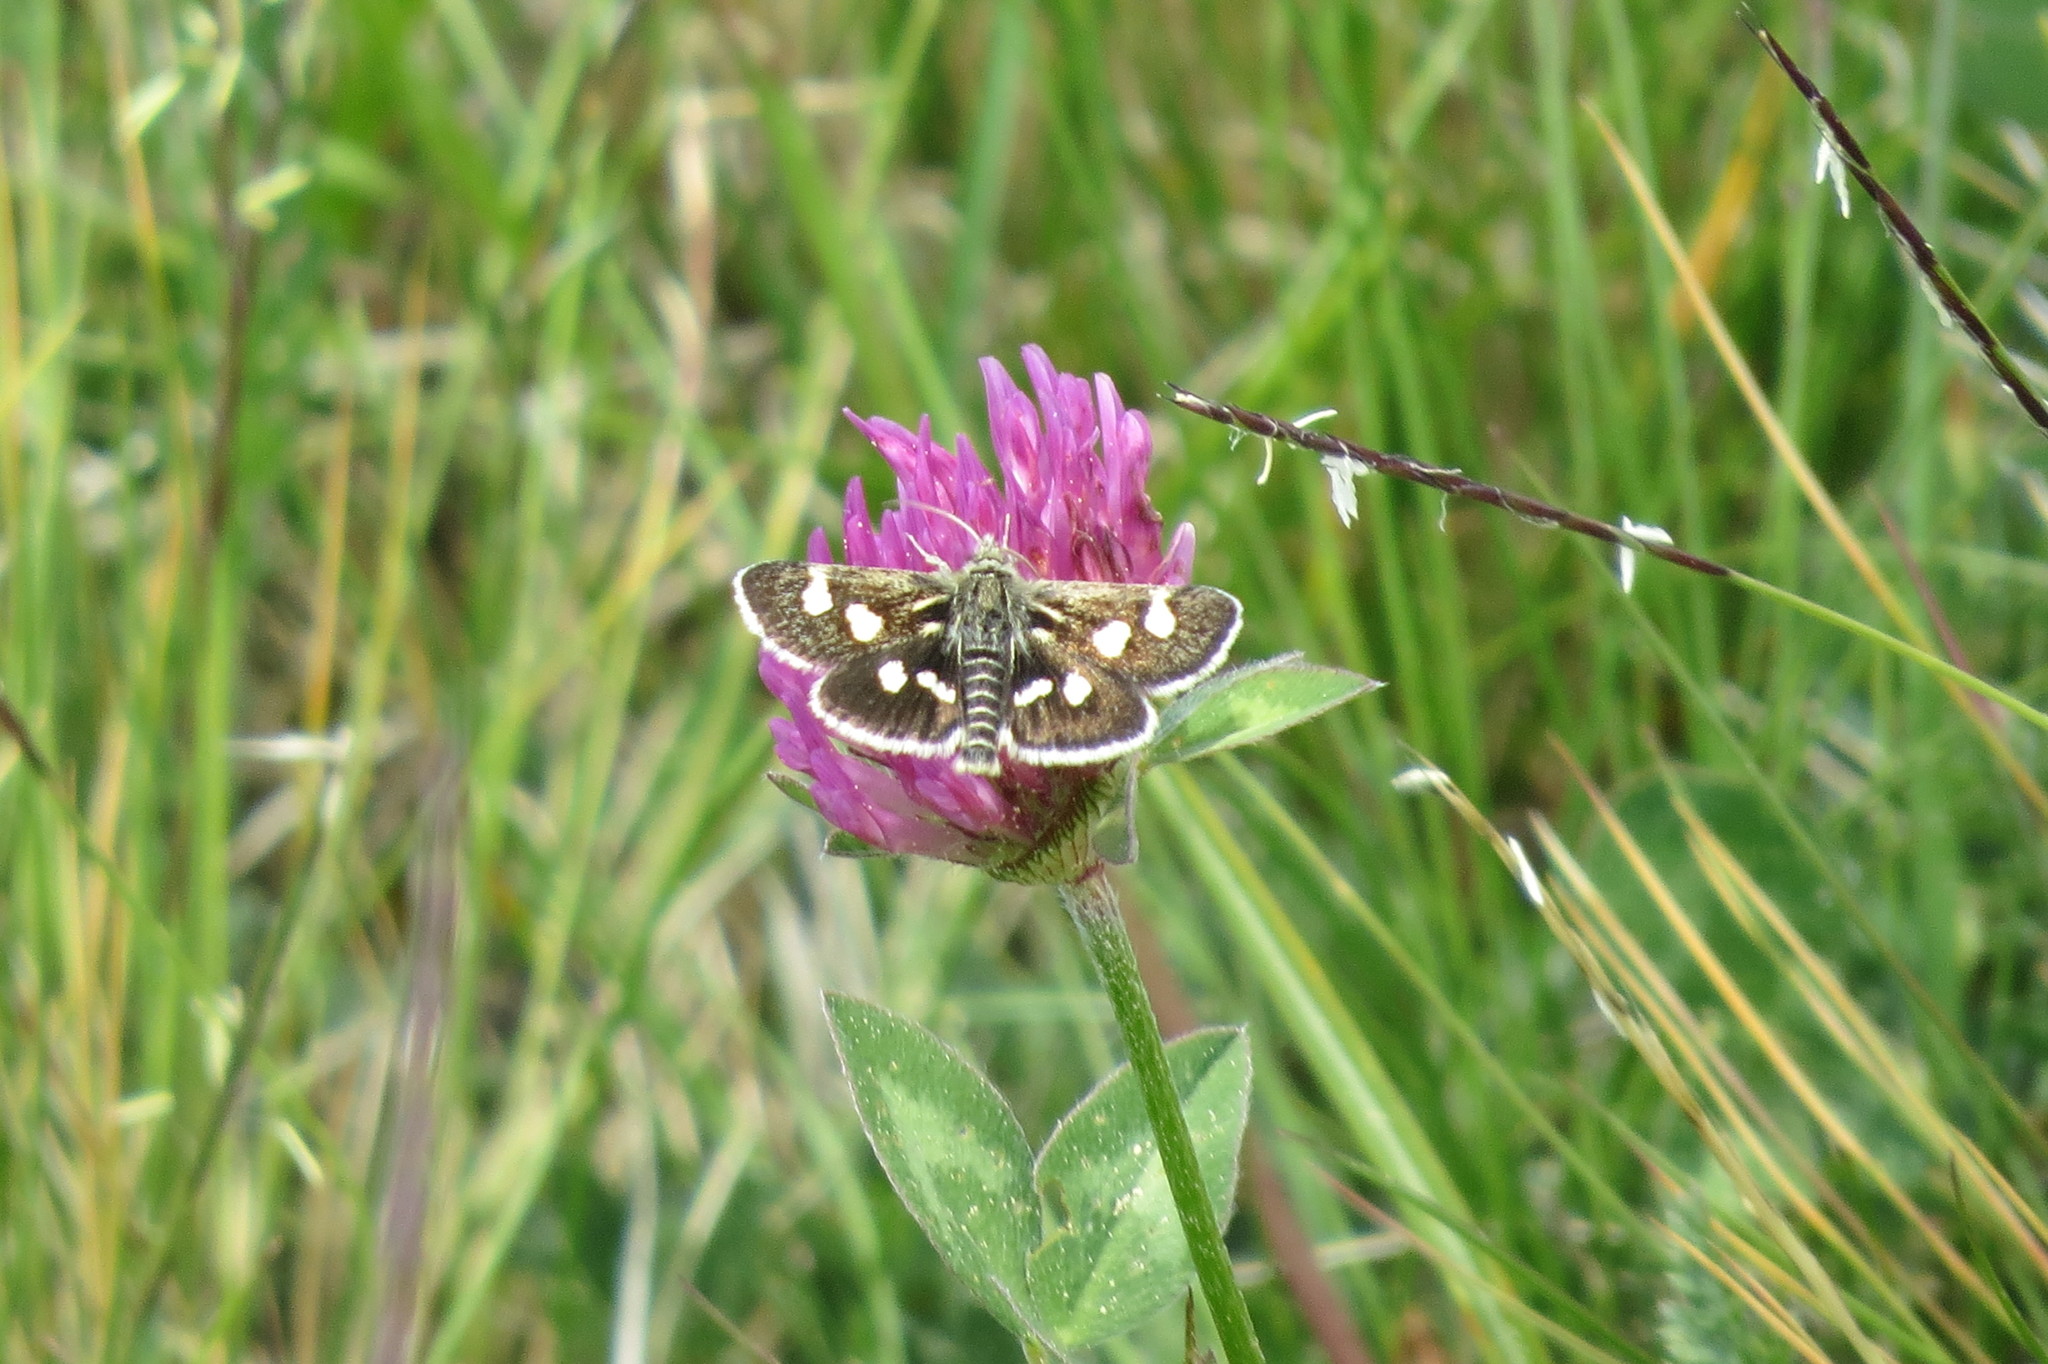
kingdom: Animalia
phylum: Arthropoda
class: Insecta
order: Lepidoptera
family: Crambidae
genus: Eurrhypis
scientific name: Eurrhypis pollinalis
